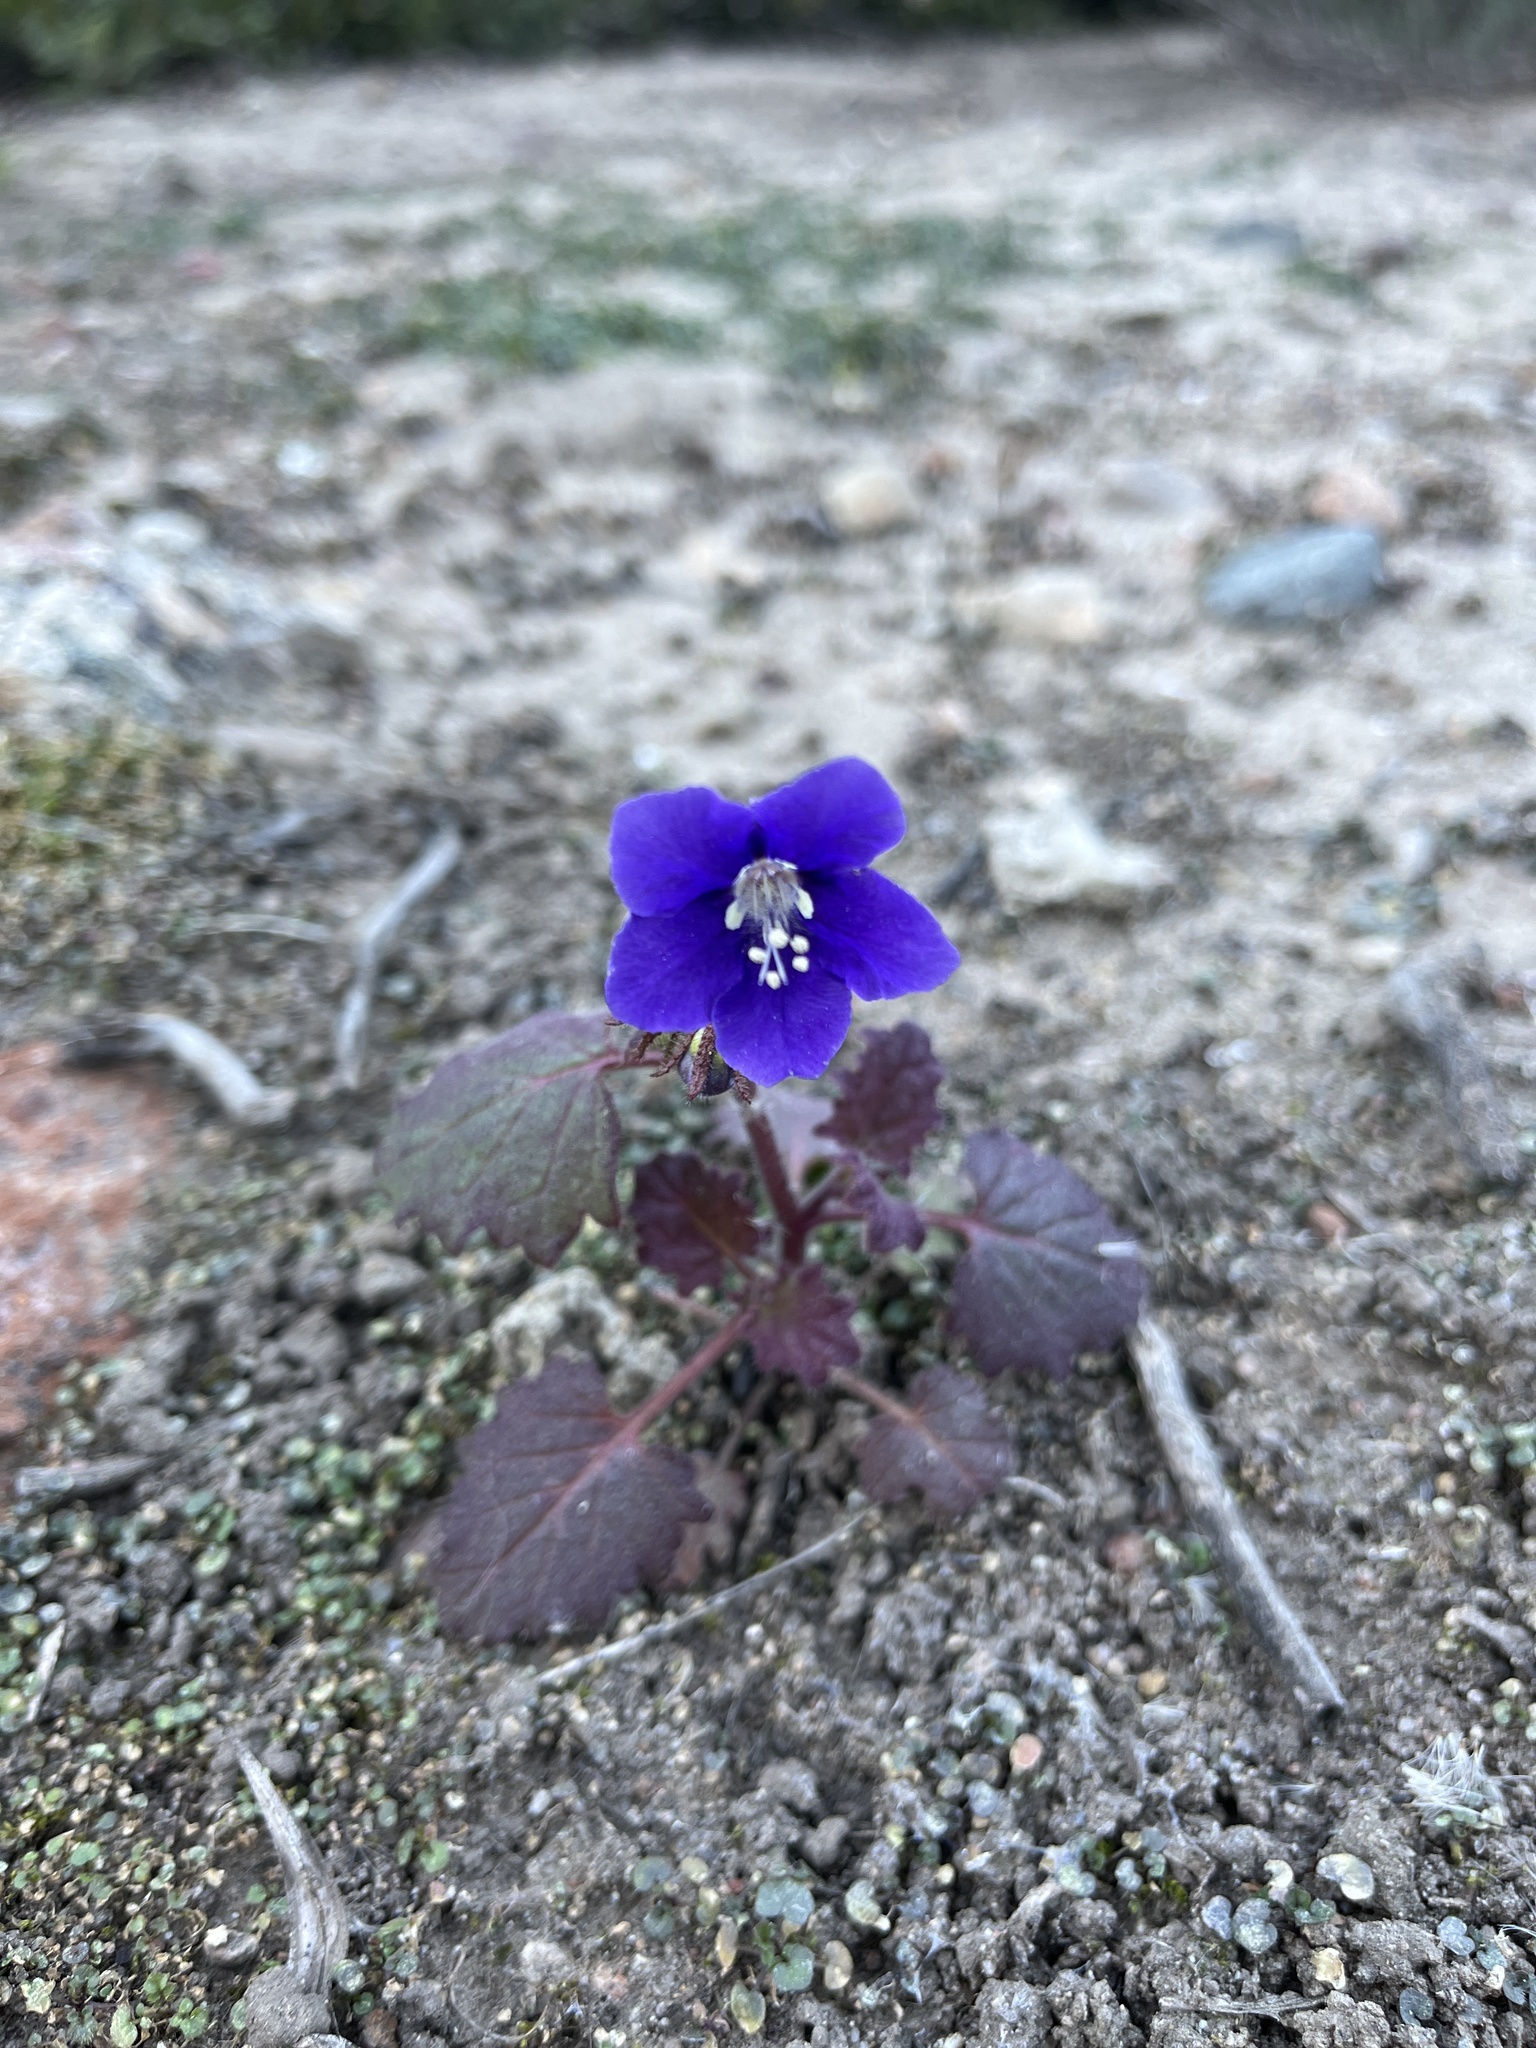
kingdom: Plantae
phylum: Tracheophyta
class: Magnoliopsida
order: Boraginales
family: Hydrophyllaceae
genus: Phacelia
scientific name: Phacelia parryi
